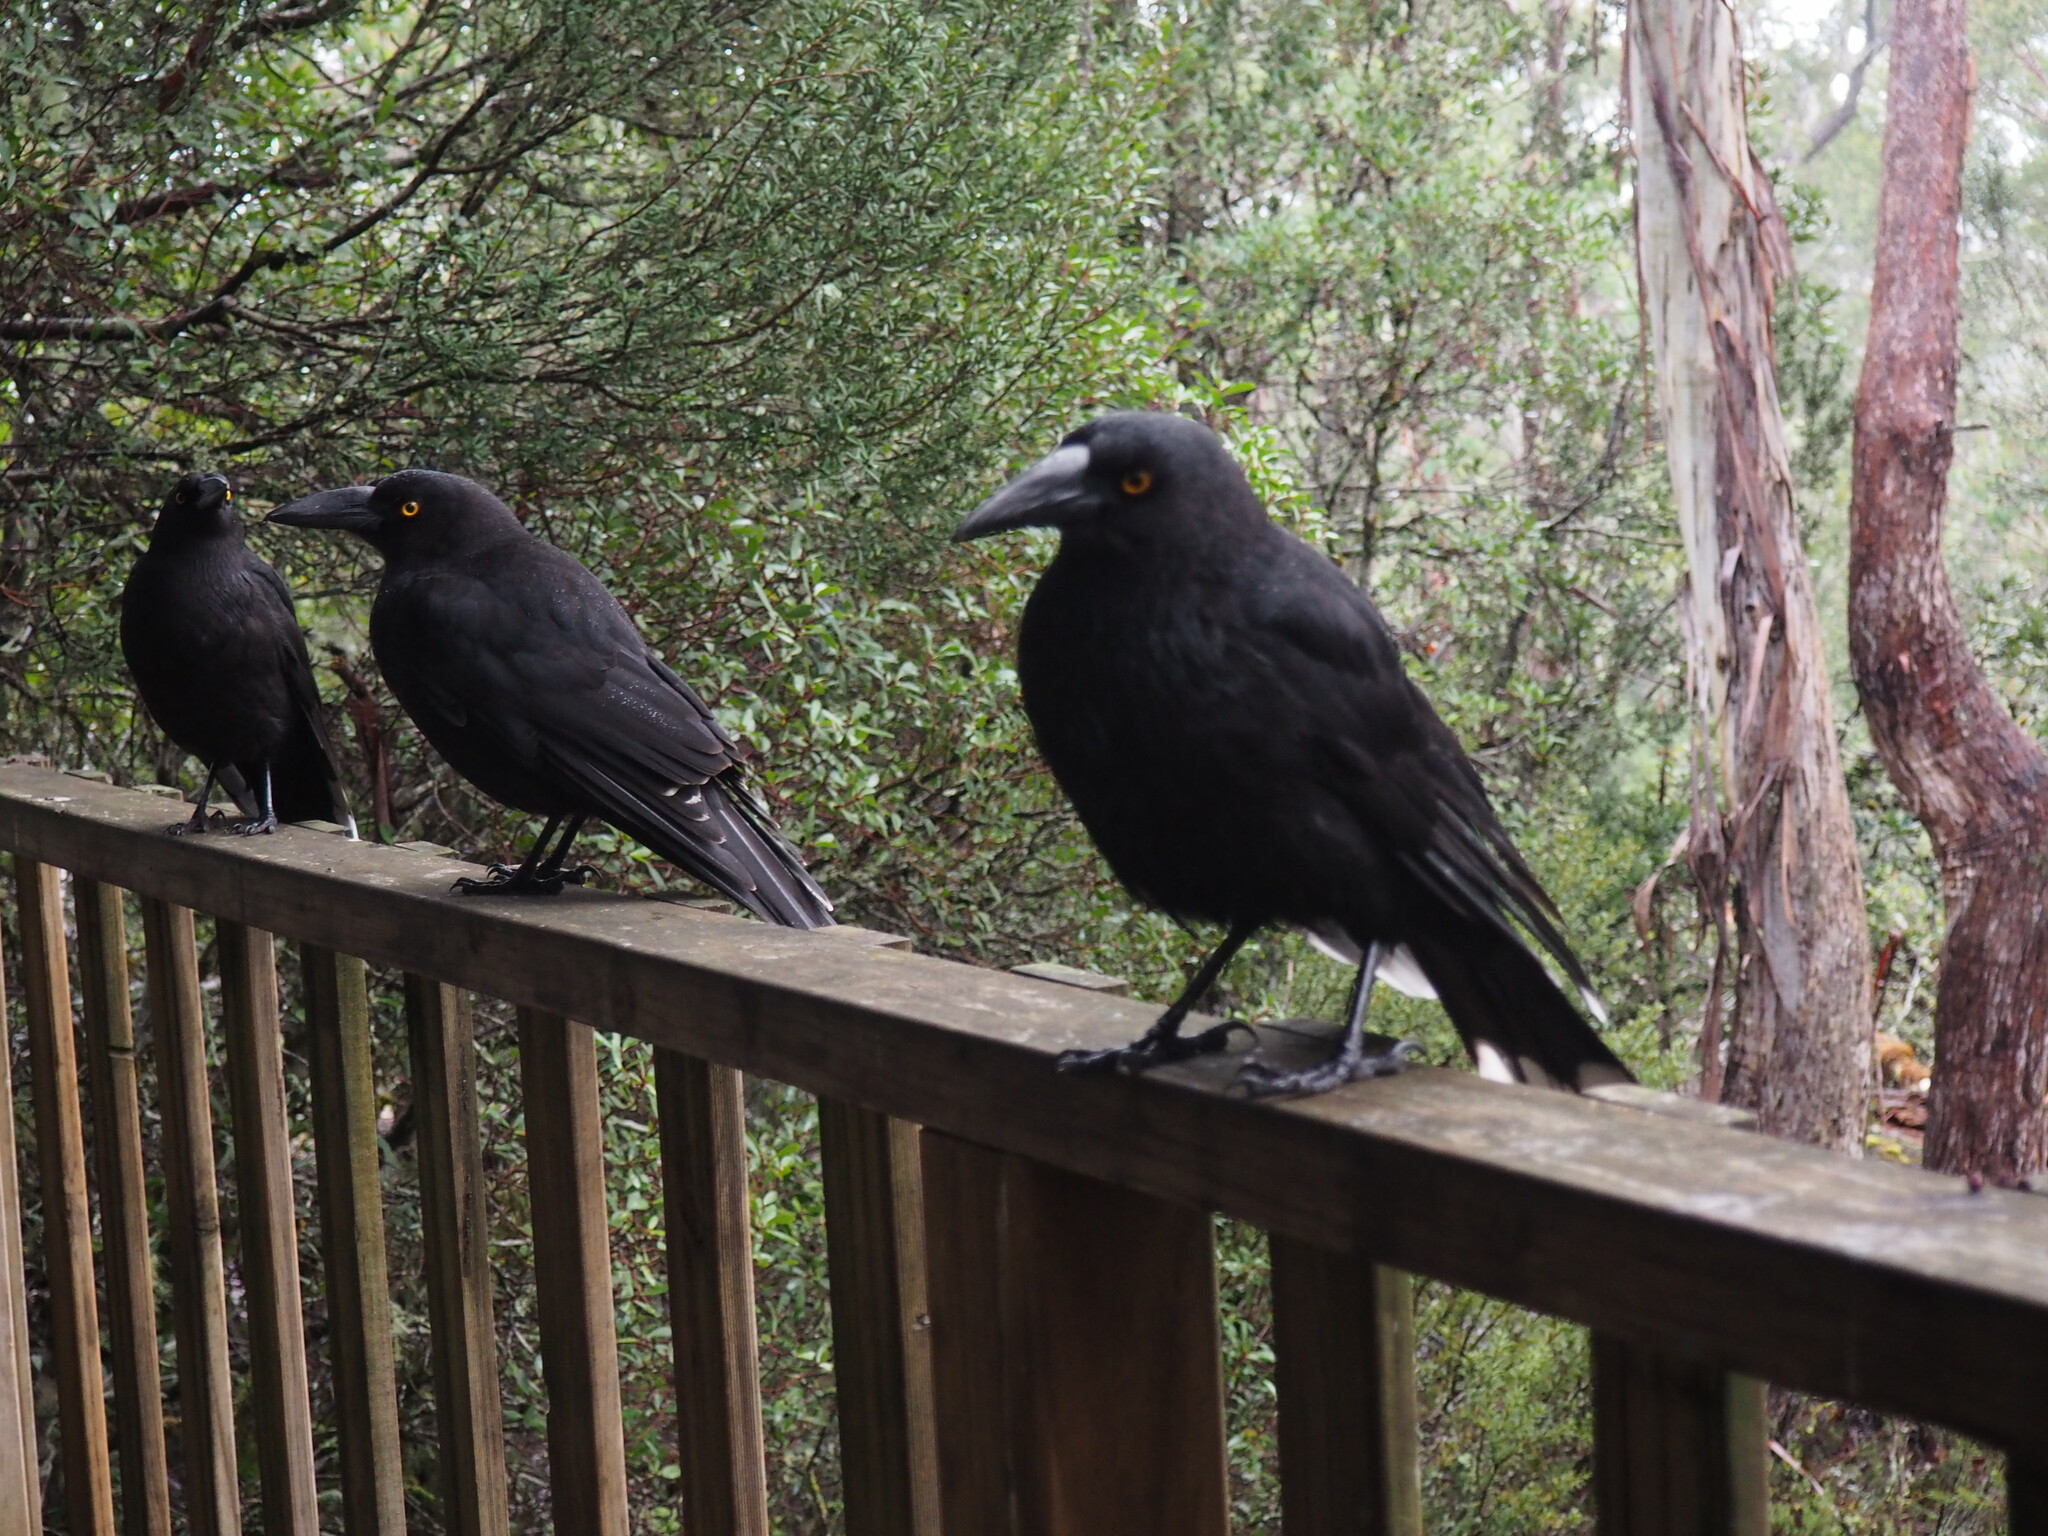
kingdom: Animalia
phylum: Chordata
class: Aves
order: Passeriformes
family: Cracticidae
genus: Strepera
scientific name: Strepera fuliginosa
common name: Black currawong
